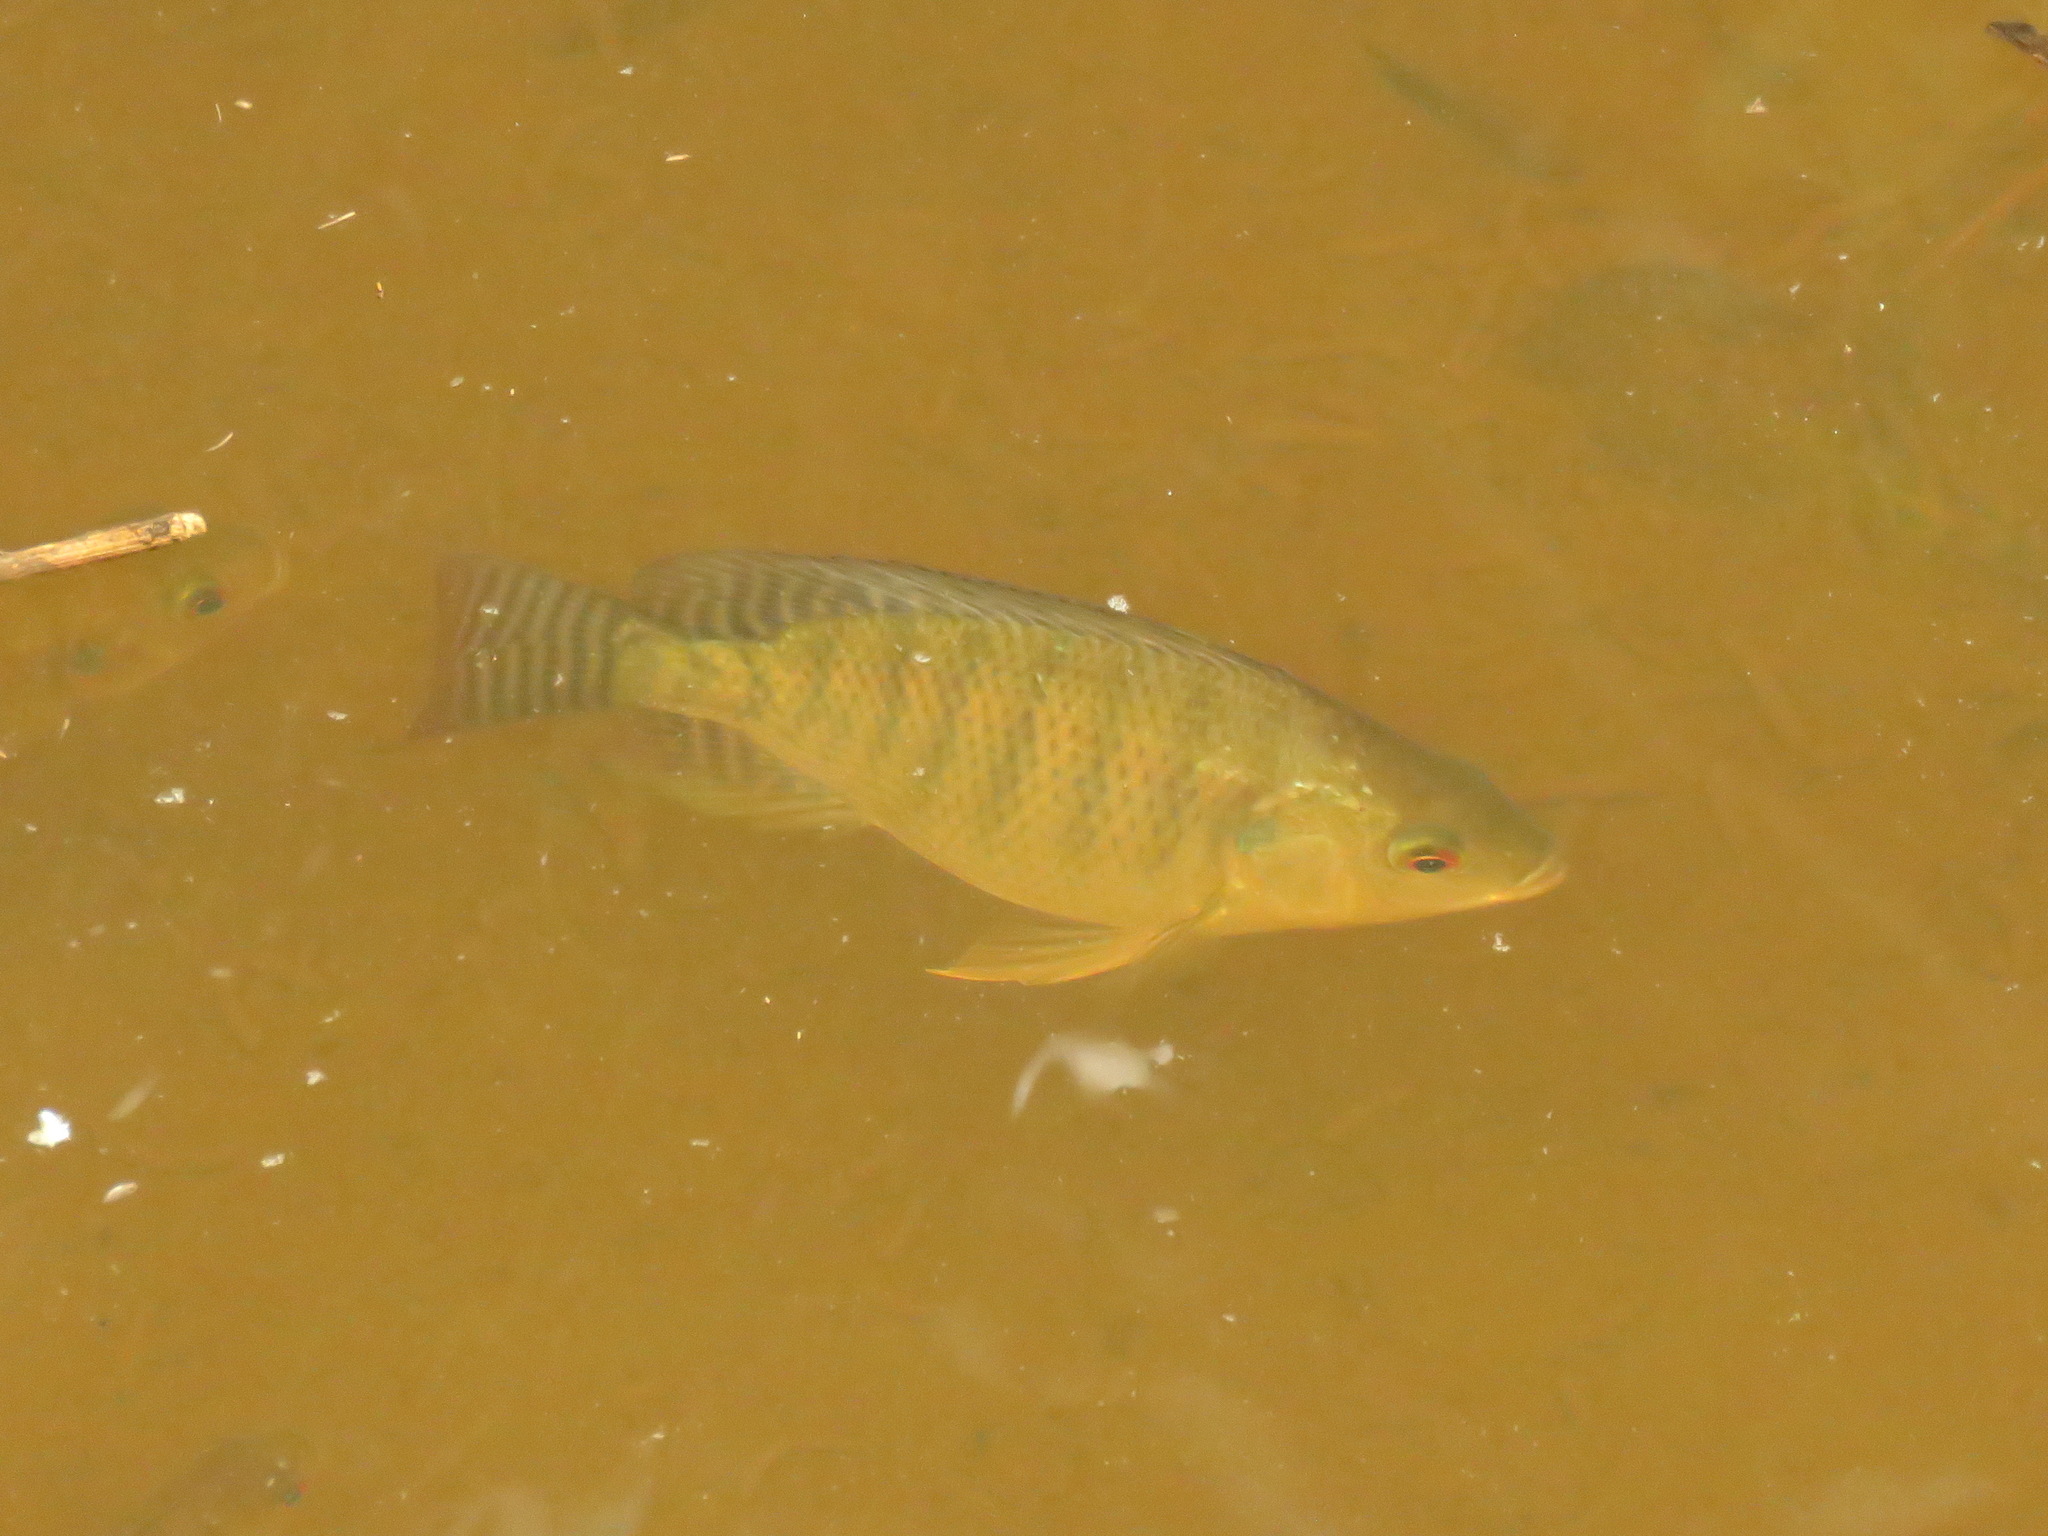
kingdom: Animalia
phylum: Chordata
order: Perciformes
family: Cichlidae
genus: Oreochromis
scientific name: Oreochromis niloticus
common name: Nile tilapia
